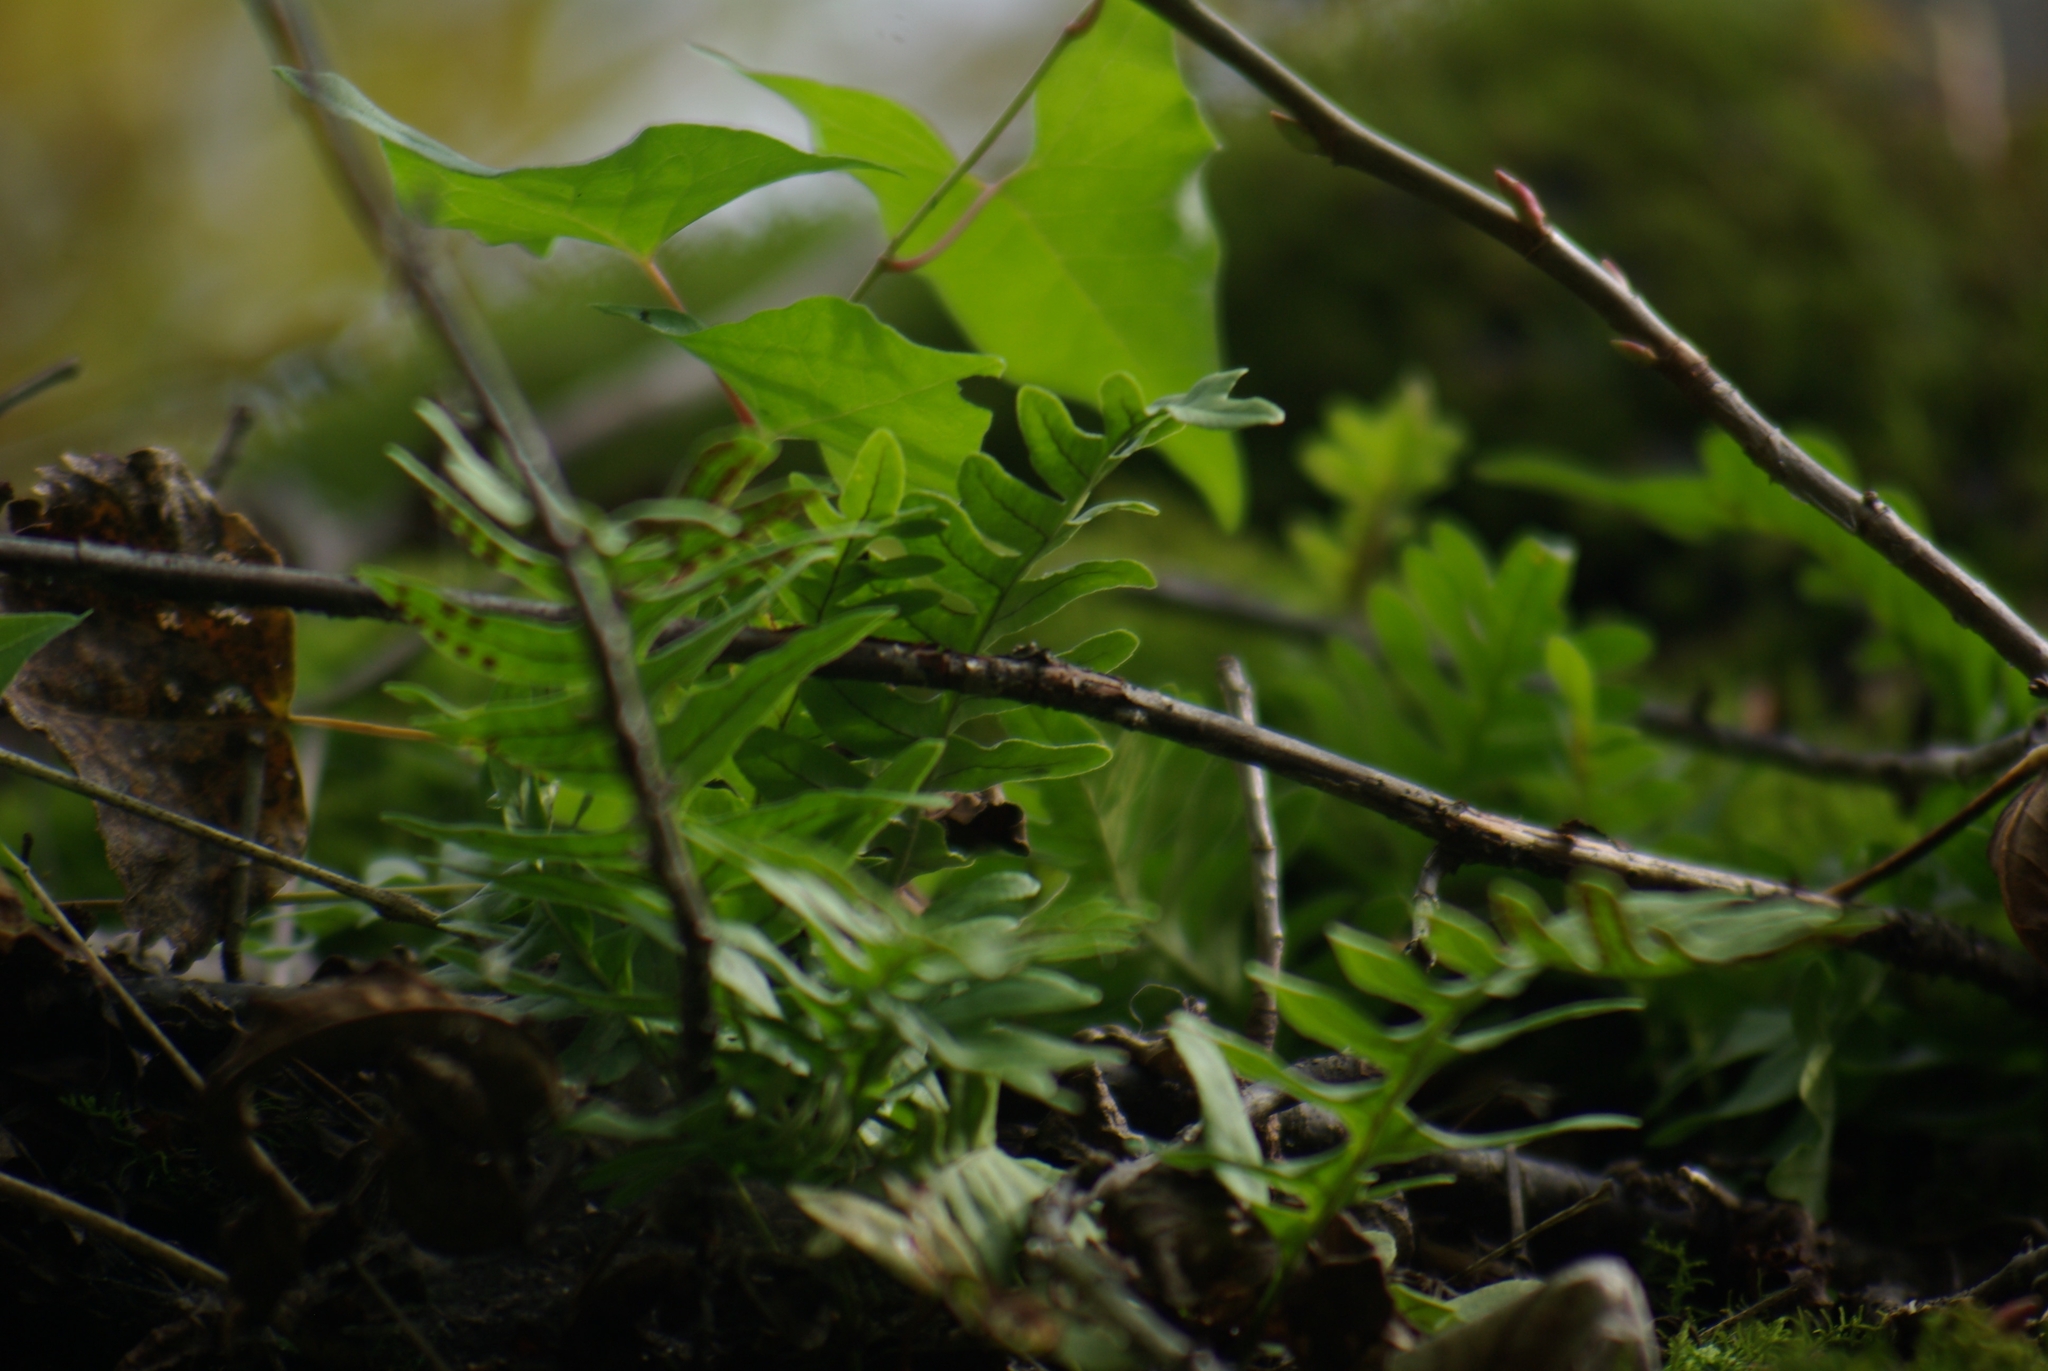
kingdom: Plantae
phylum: Tracheophyta
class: Polypodiopsida
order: Polypodiales
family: Polypodiaceae
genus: Polypodium
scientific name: Polypodium virginianum
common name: American wall fern
